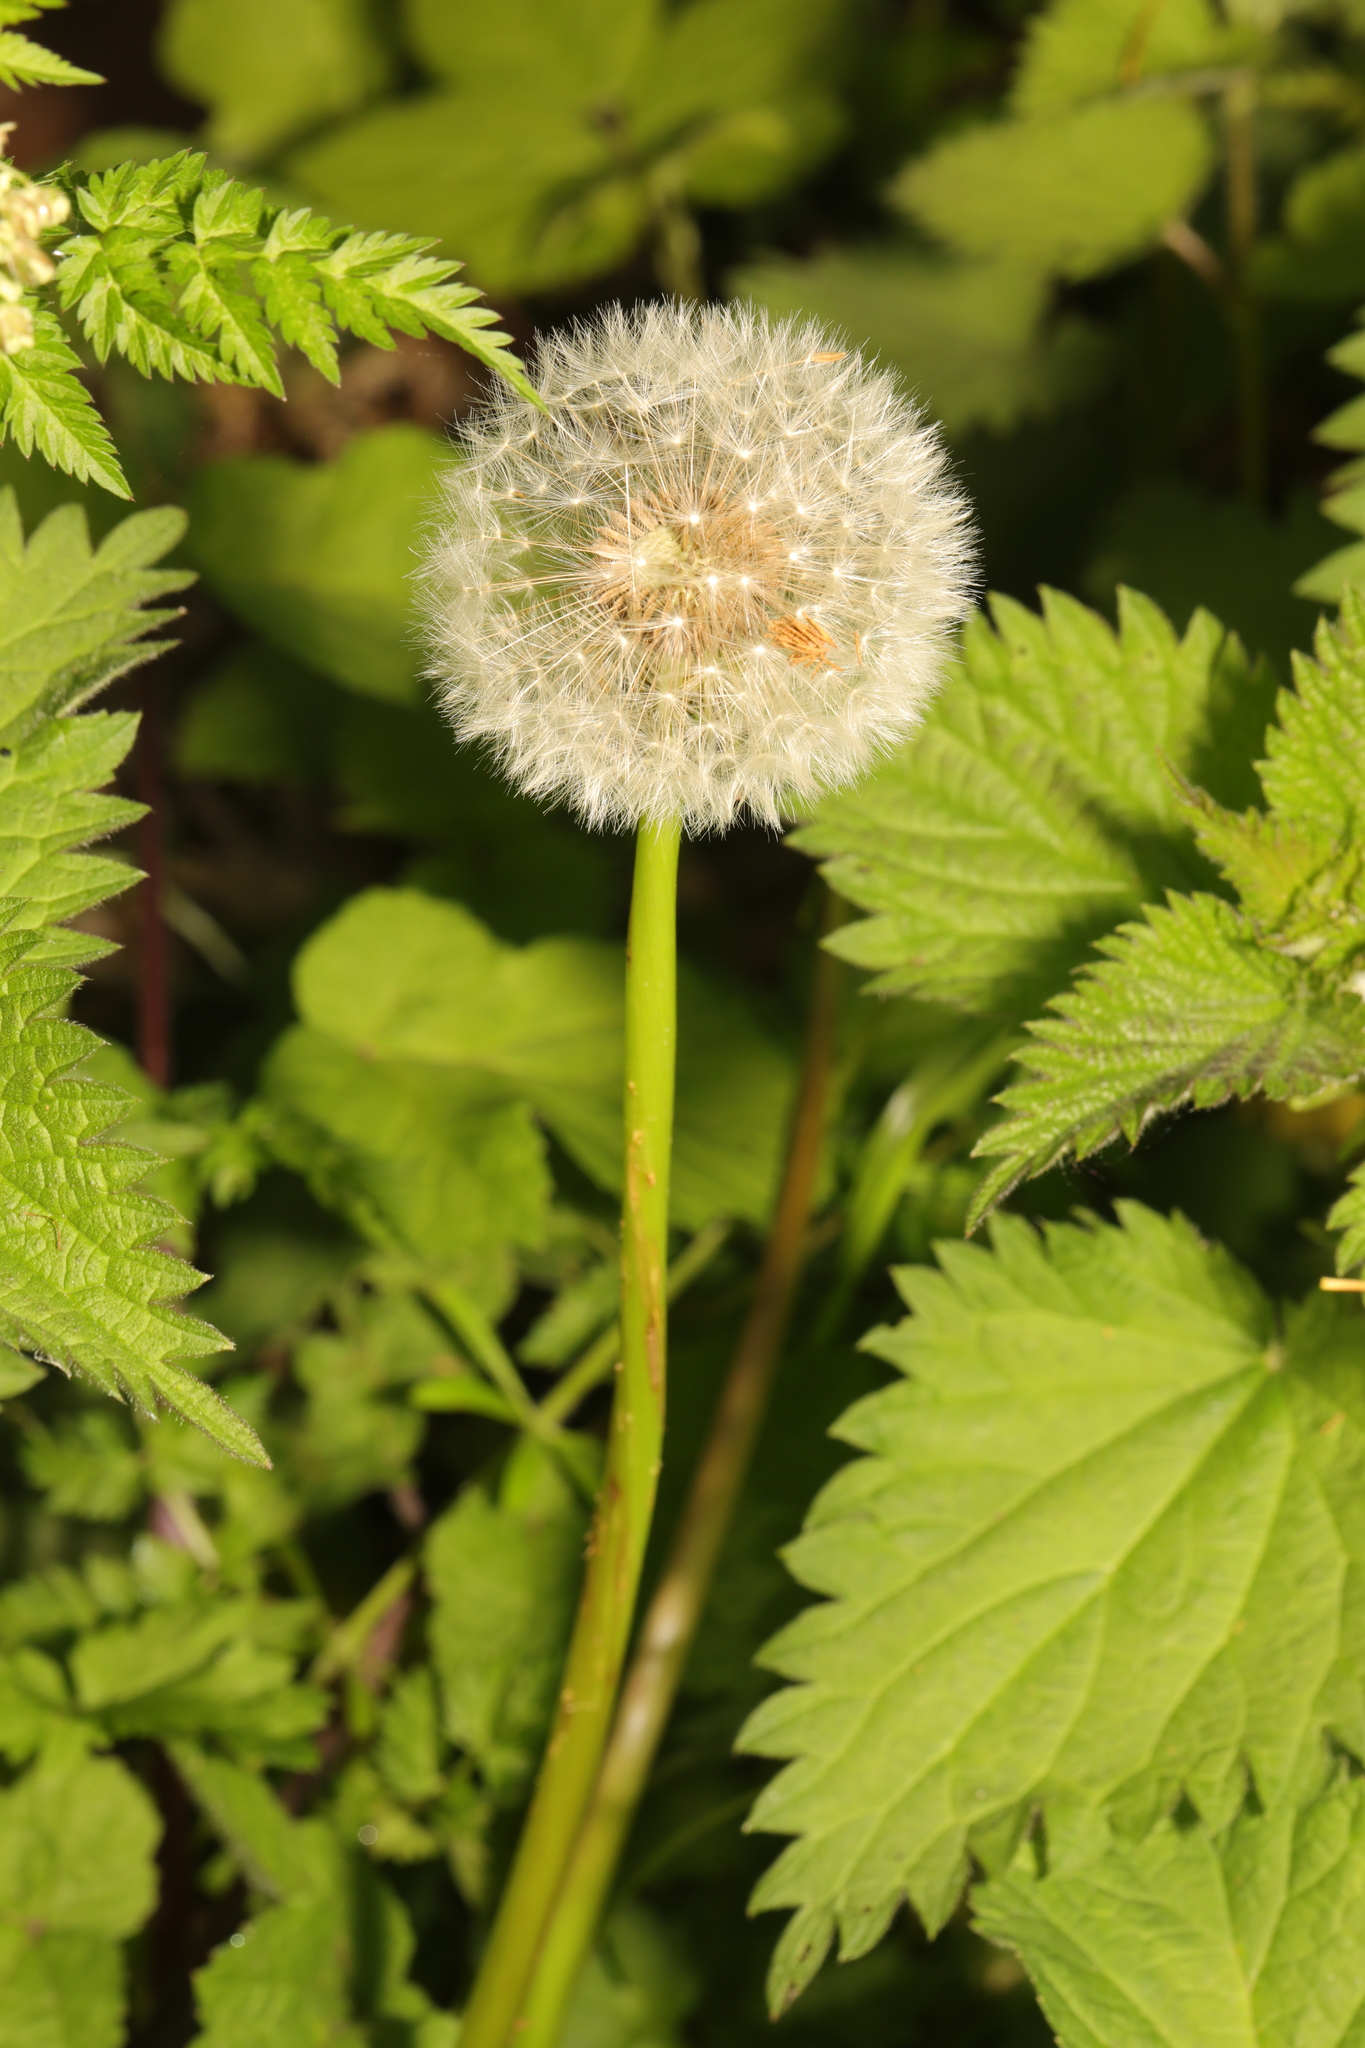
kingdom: Plantae
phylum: Tracheophyta
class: Magnoliopsida
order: Asterales
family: Asteraceae
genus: Taraxacum
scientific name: Taraxacum officinale
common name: Common dandelion
